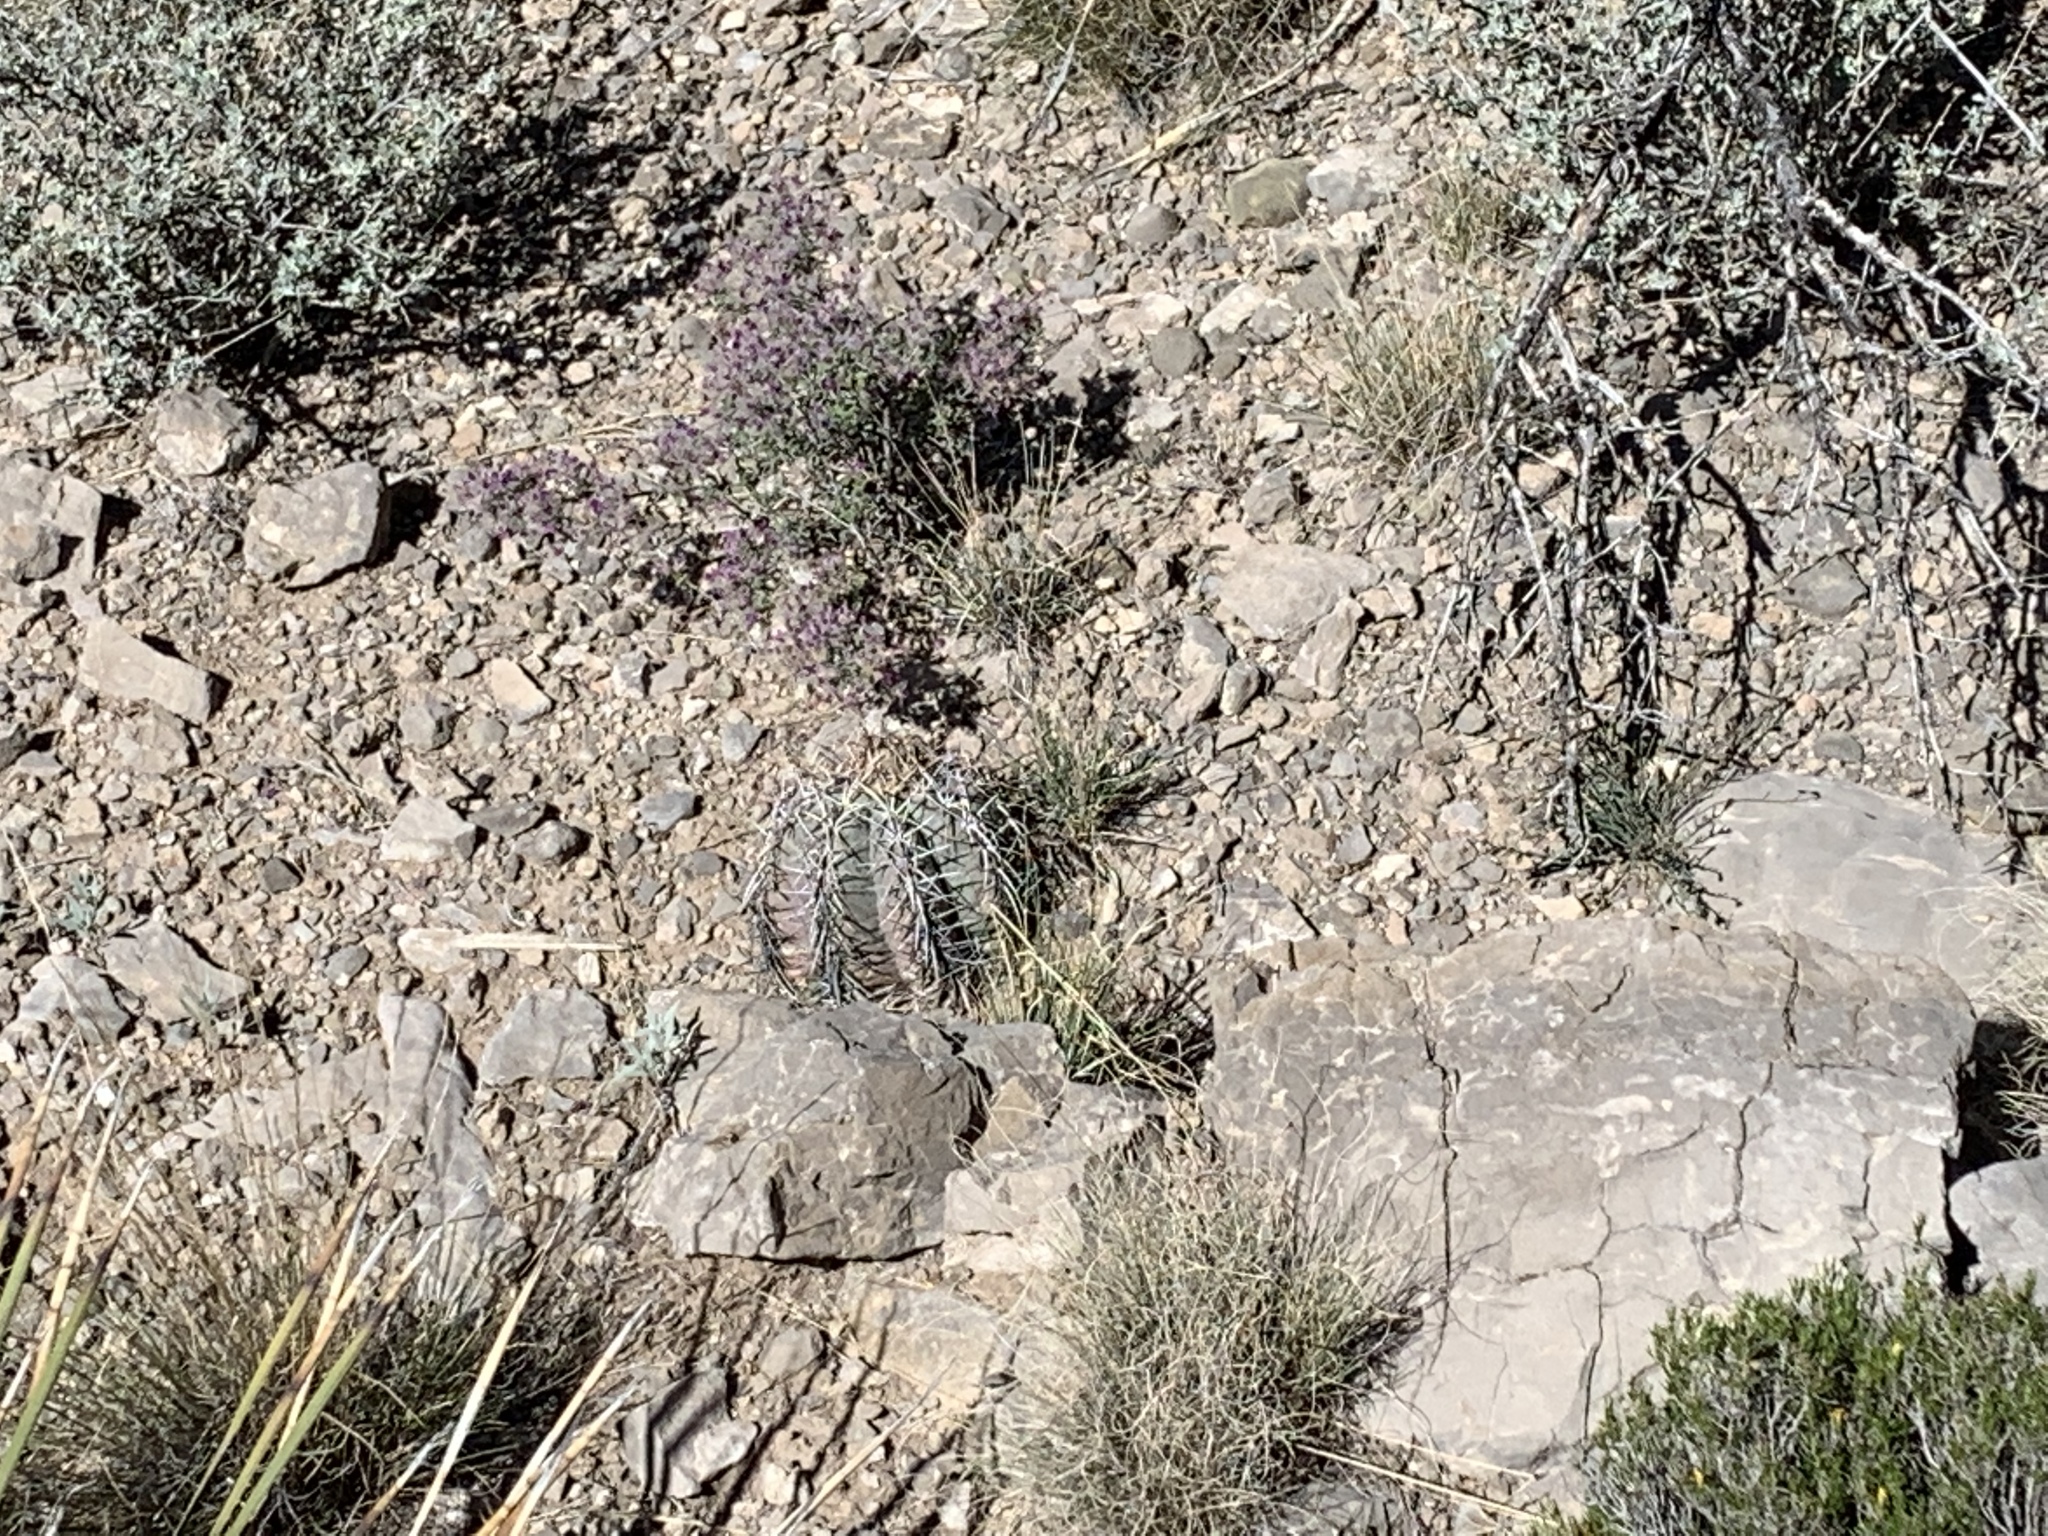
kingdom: Plantae
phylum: Tracheophyta
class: Magnoliopsida
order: Caryophyllales
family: Cactaceae
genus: Echinocactus
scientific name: Echinocactus horizonthalonius
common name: Devilshead
